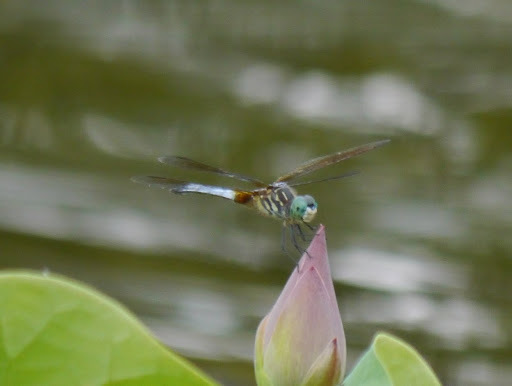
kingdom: Animalia
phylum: Arthropoda
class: Insecta
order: Odonata
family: Libellulidae
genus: Pachydiplax
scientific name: Pachydiplax longipennis
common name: Blue dasher
